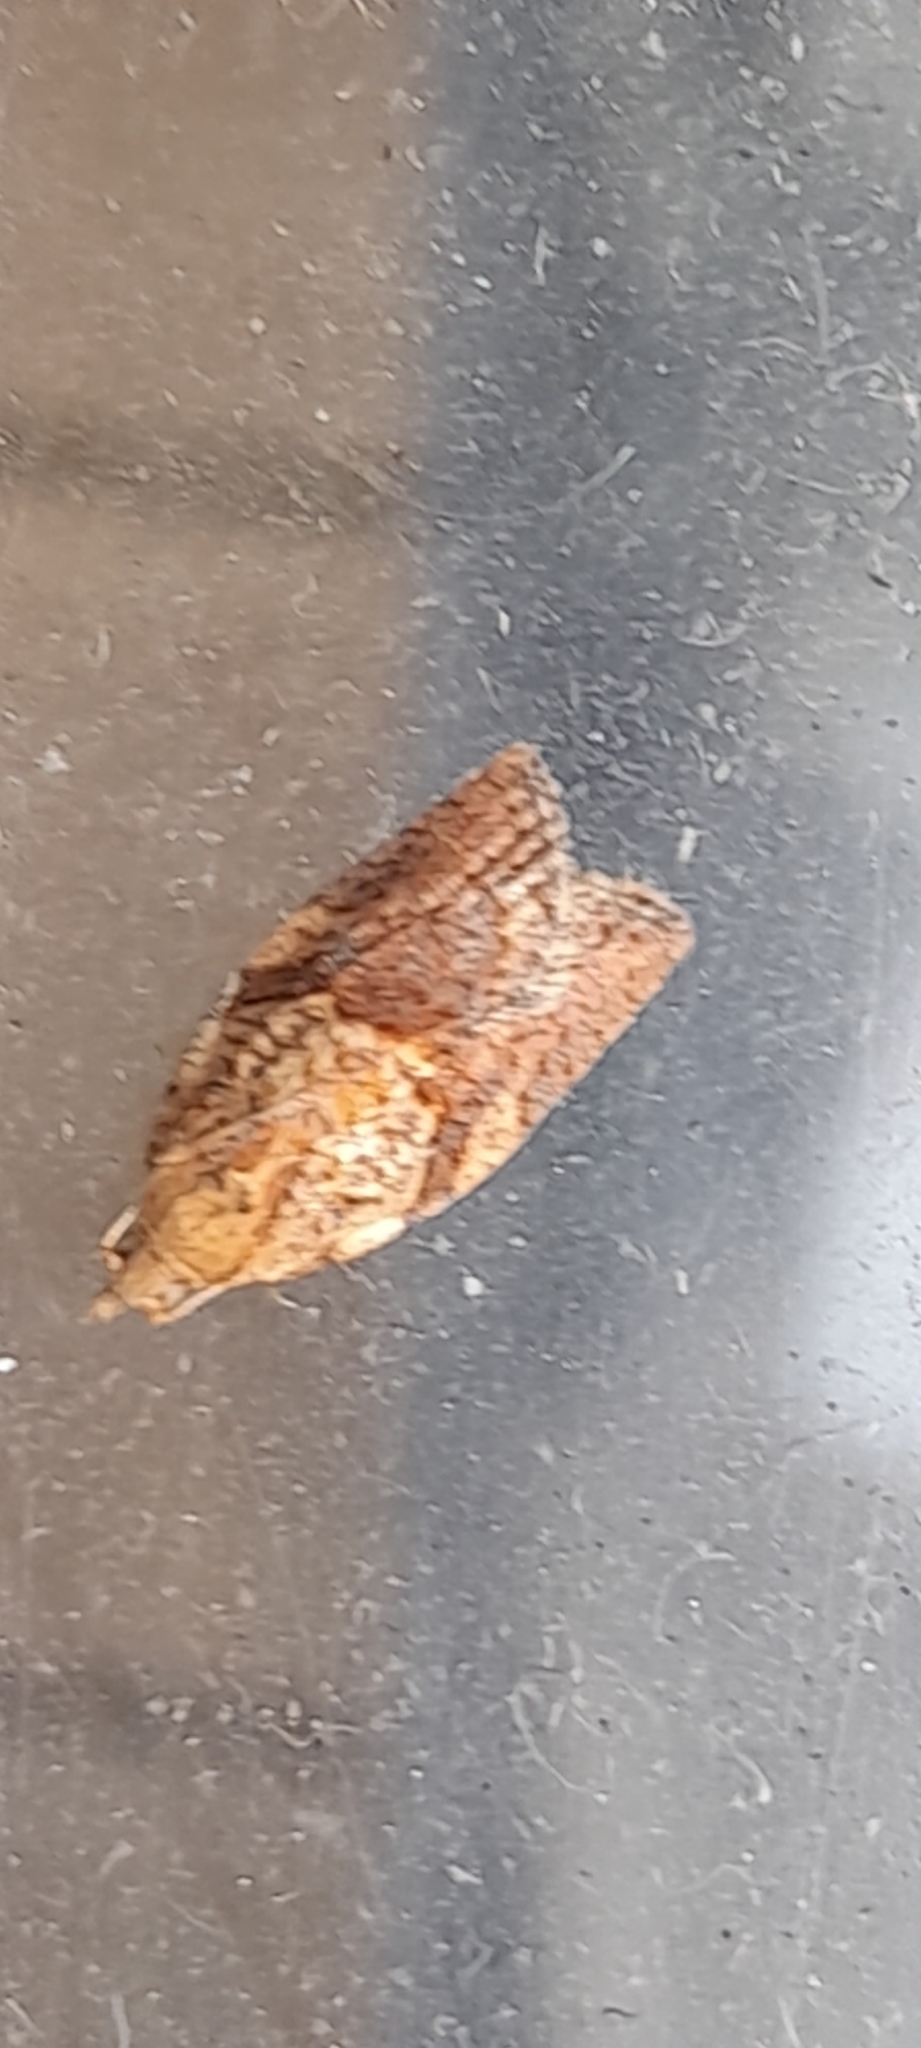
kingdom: Animalia
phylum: Arthropoda
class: Insecta
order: Lepidoptera
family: Tortricidae
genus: Epiphyas
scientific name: Epiphyas postvittana
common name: Light brown apple moth
